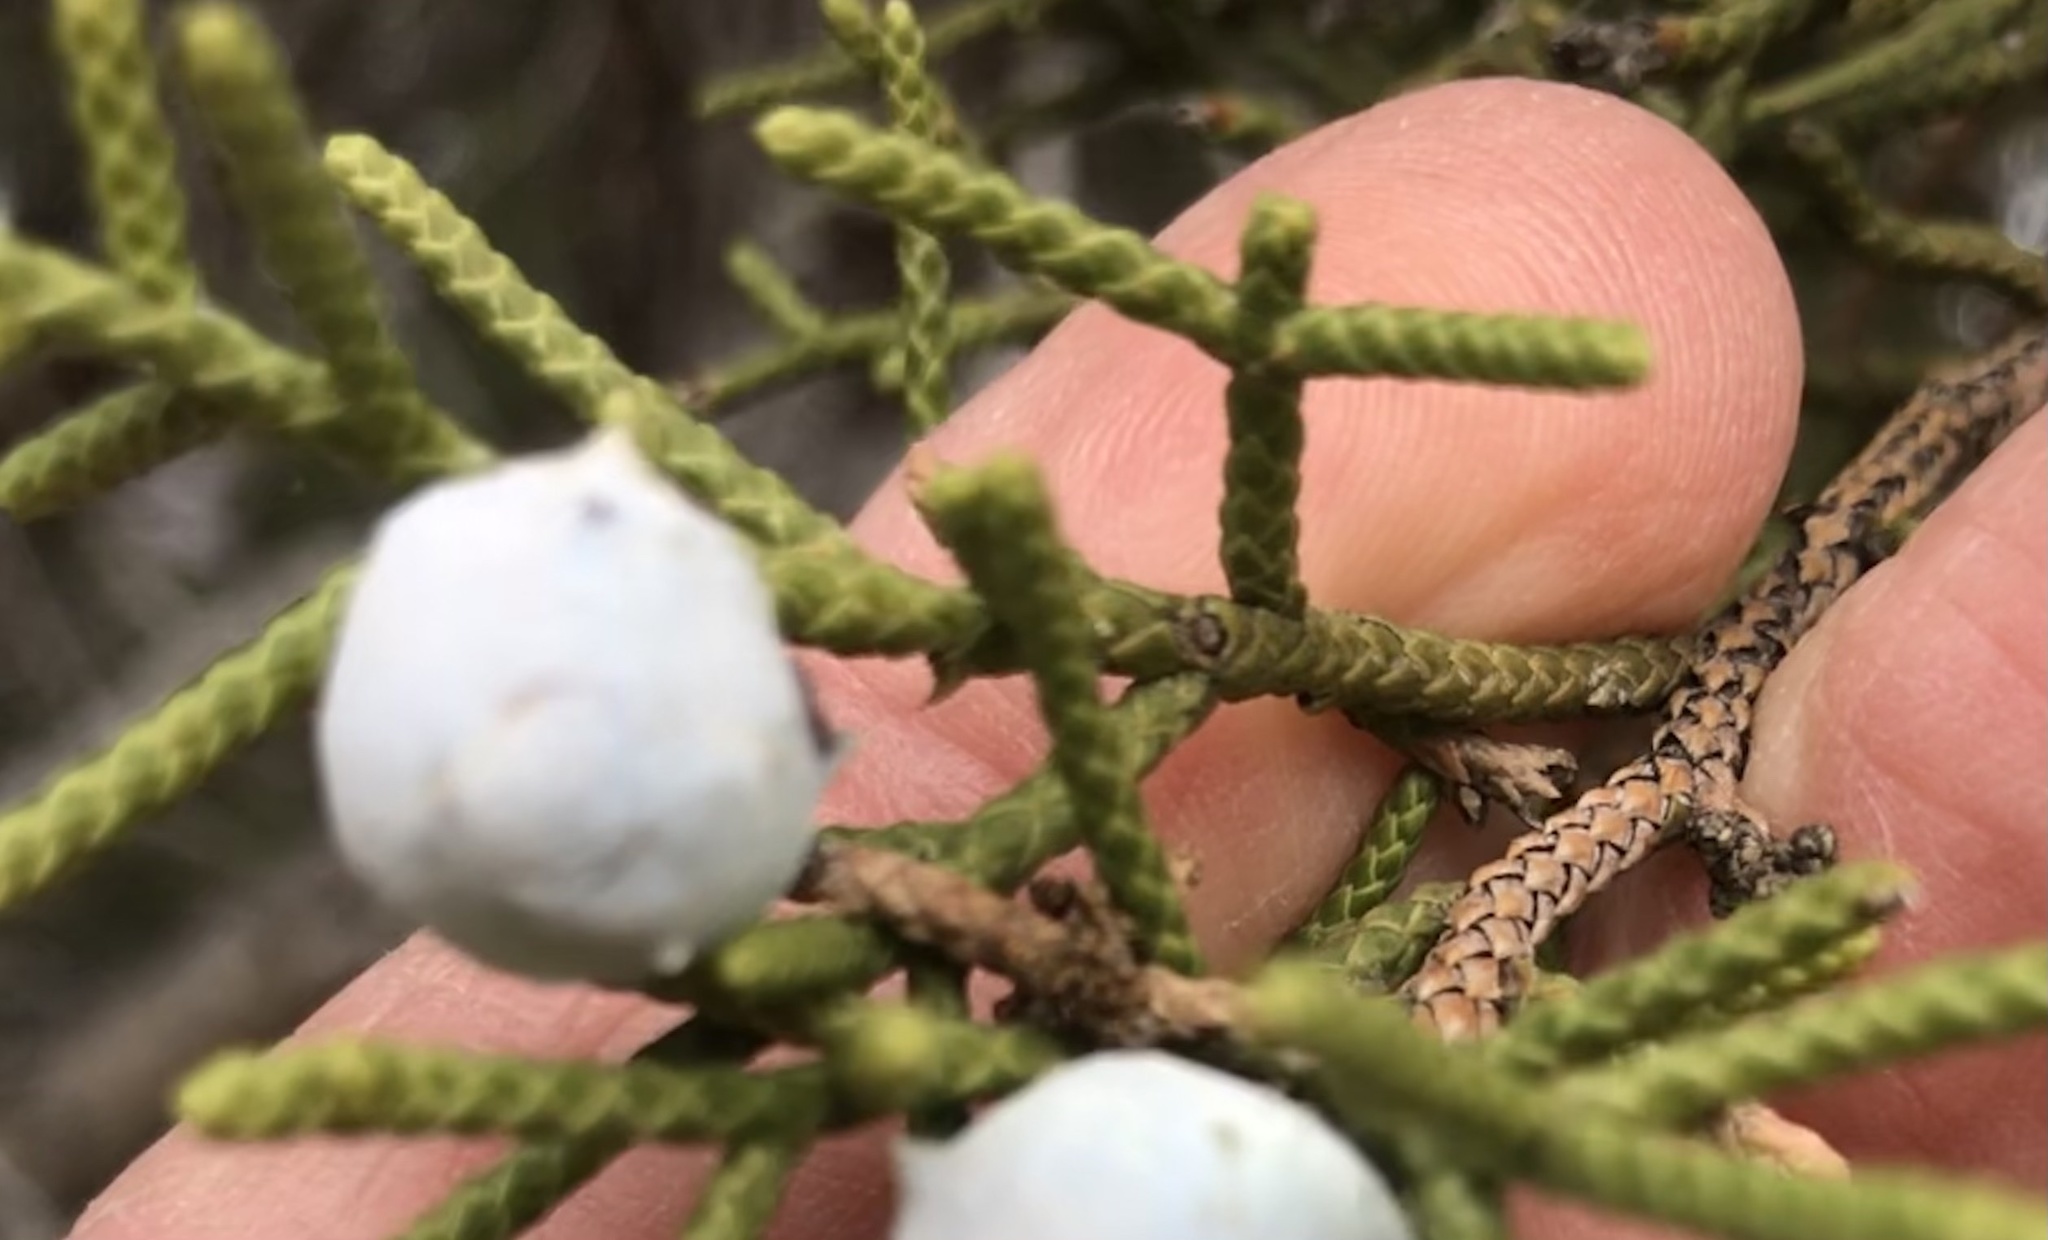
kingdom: Plantae
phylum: Tracheophyta
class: Pinopsida
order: Pinales
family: Cupressaceae
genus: Juniperus
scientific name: Juniperus californica
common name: California juniper
